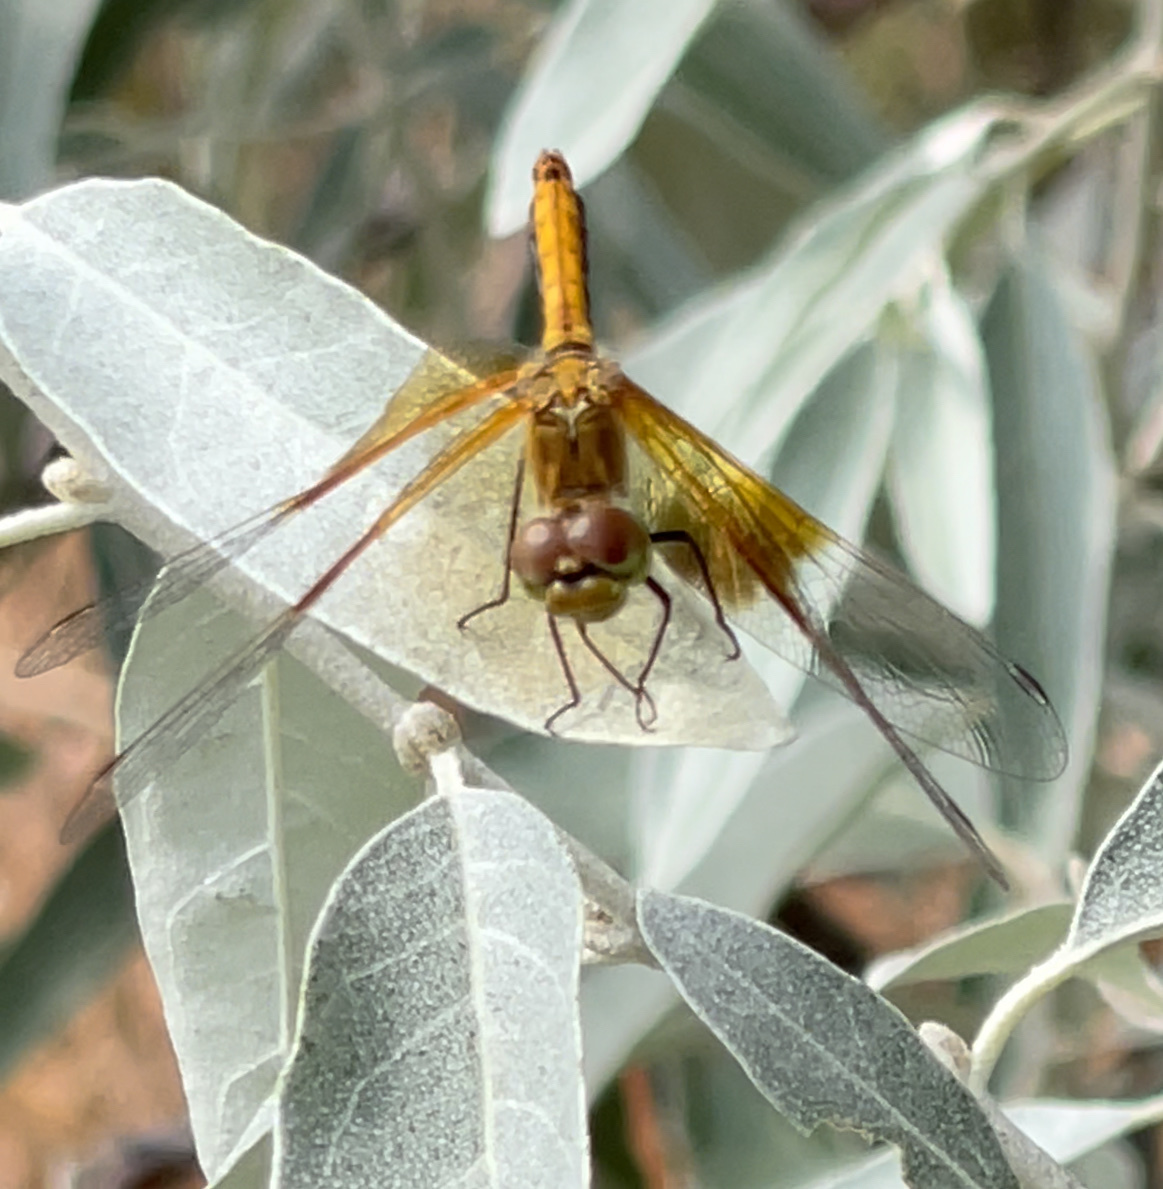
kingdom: Animalia
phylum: Arthropoda
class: Insecta
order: Odonata
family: Libellulidae
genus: Sympetrum
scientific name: Sympetrum semicinctum
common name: Band-winged meadowhawk
